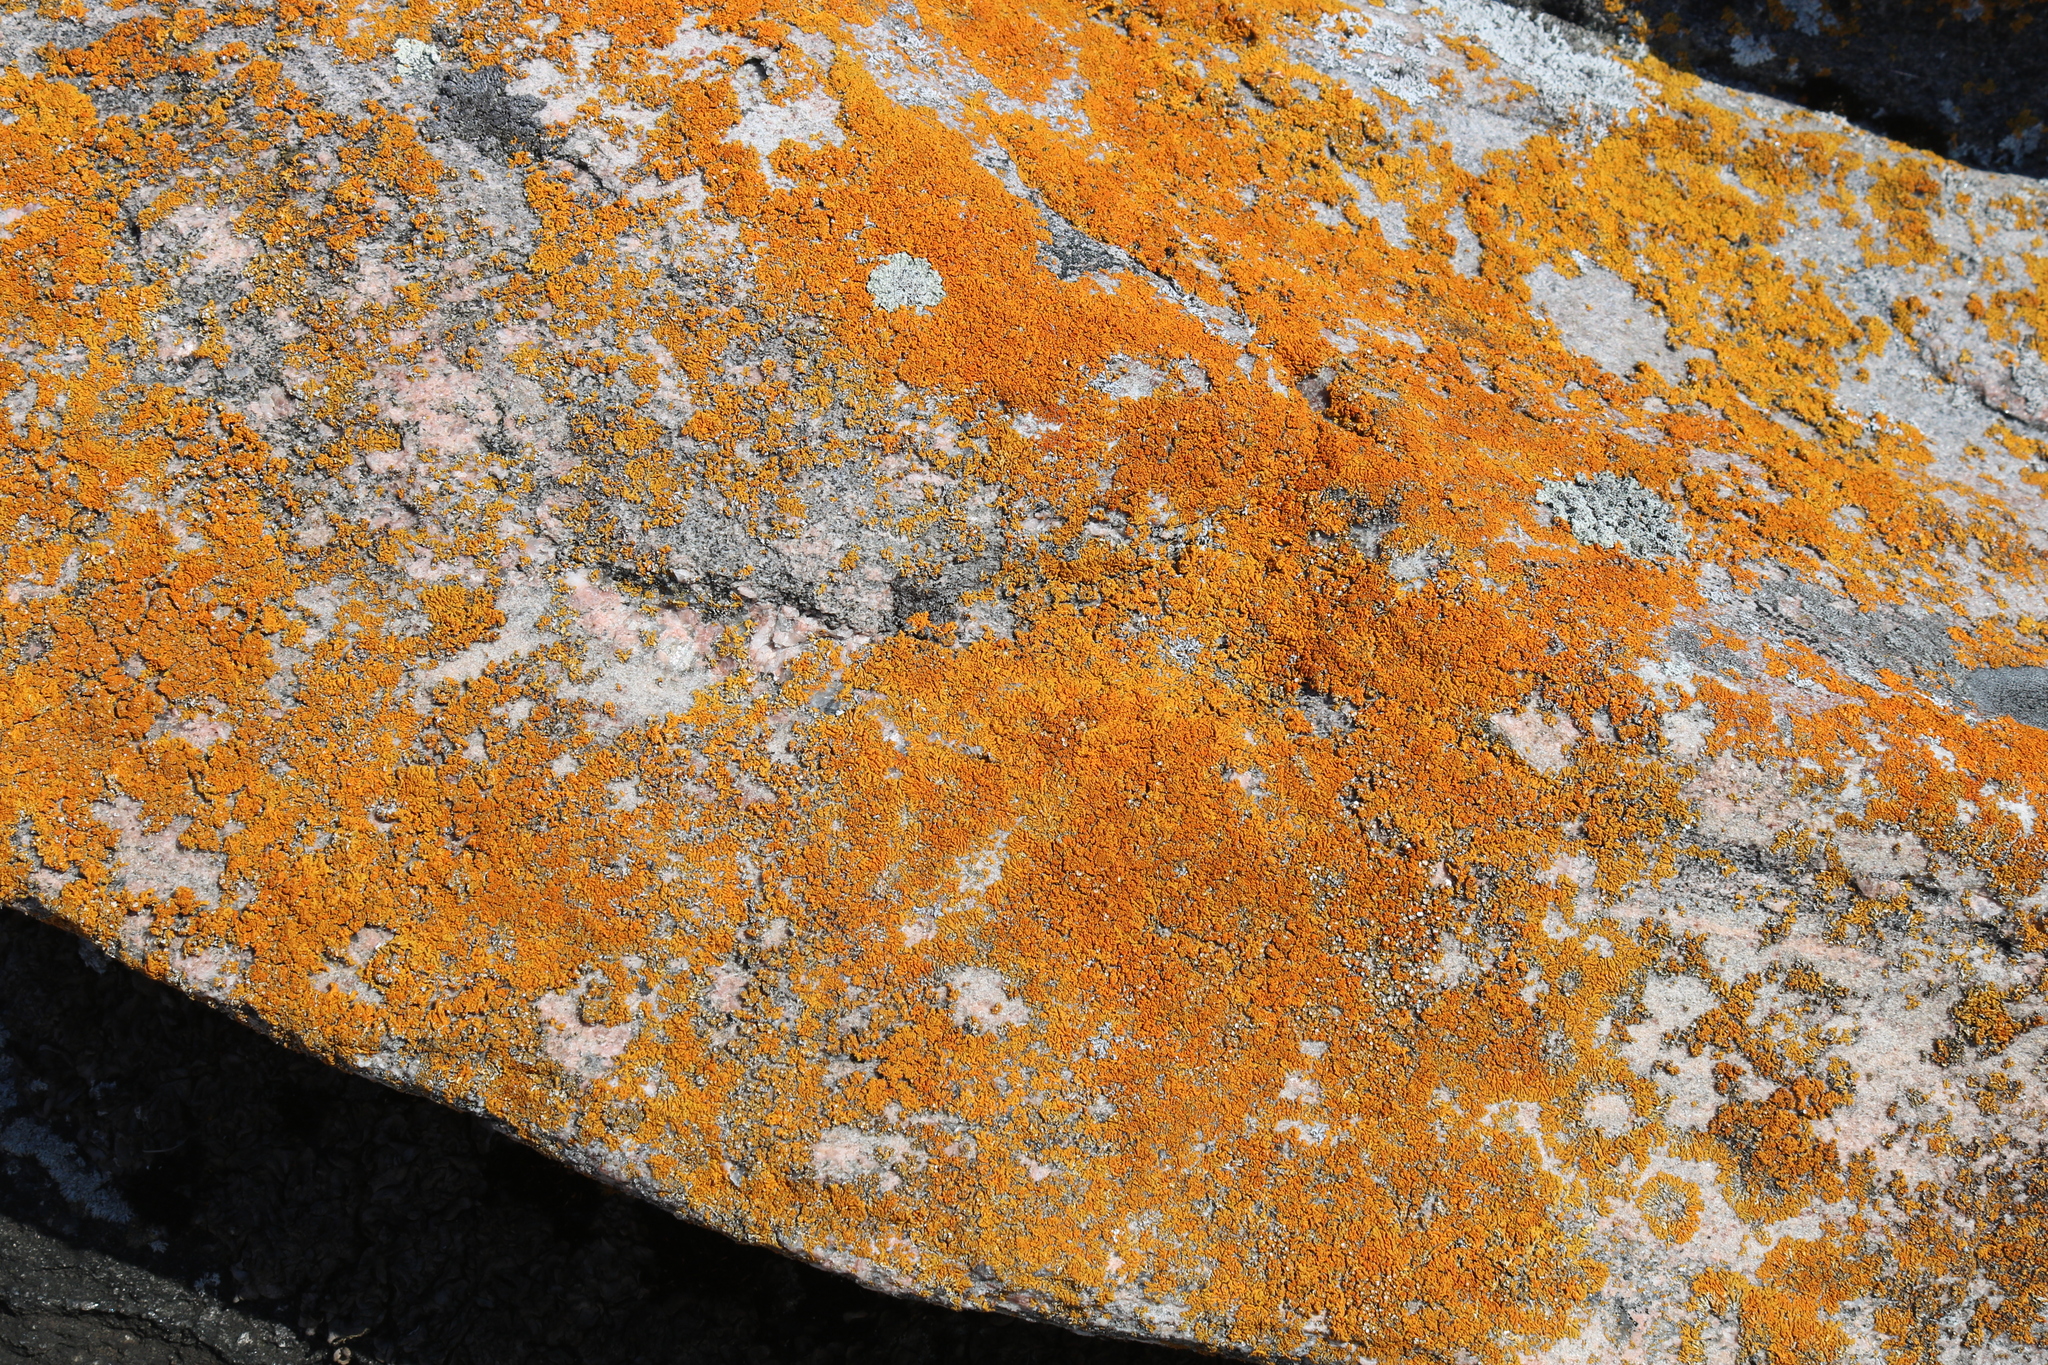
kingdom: Fungi
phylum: Ascomycota
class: Lecanoromycetes
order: Teloschistales
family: Teloschistaceae
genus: Xanthoria
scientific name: Xanthoria elegans
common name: Elegant sunburst lichen
